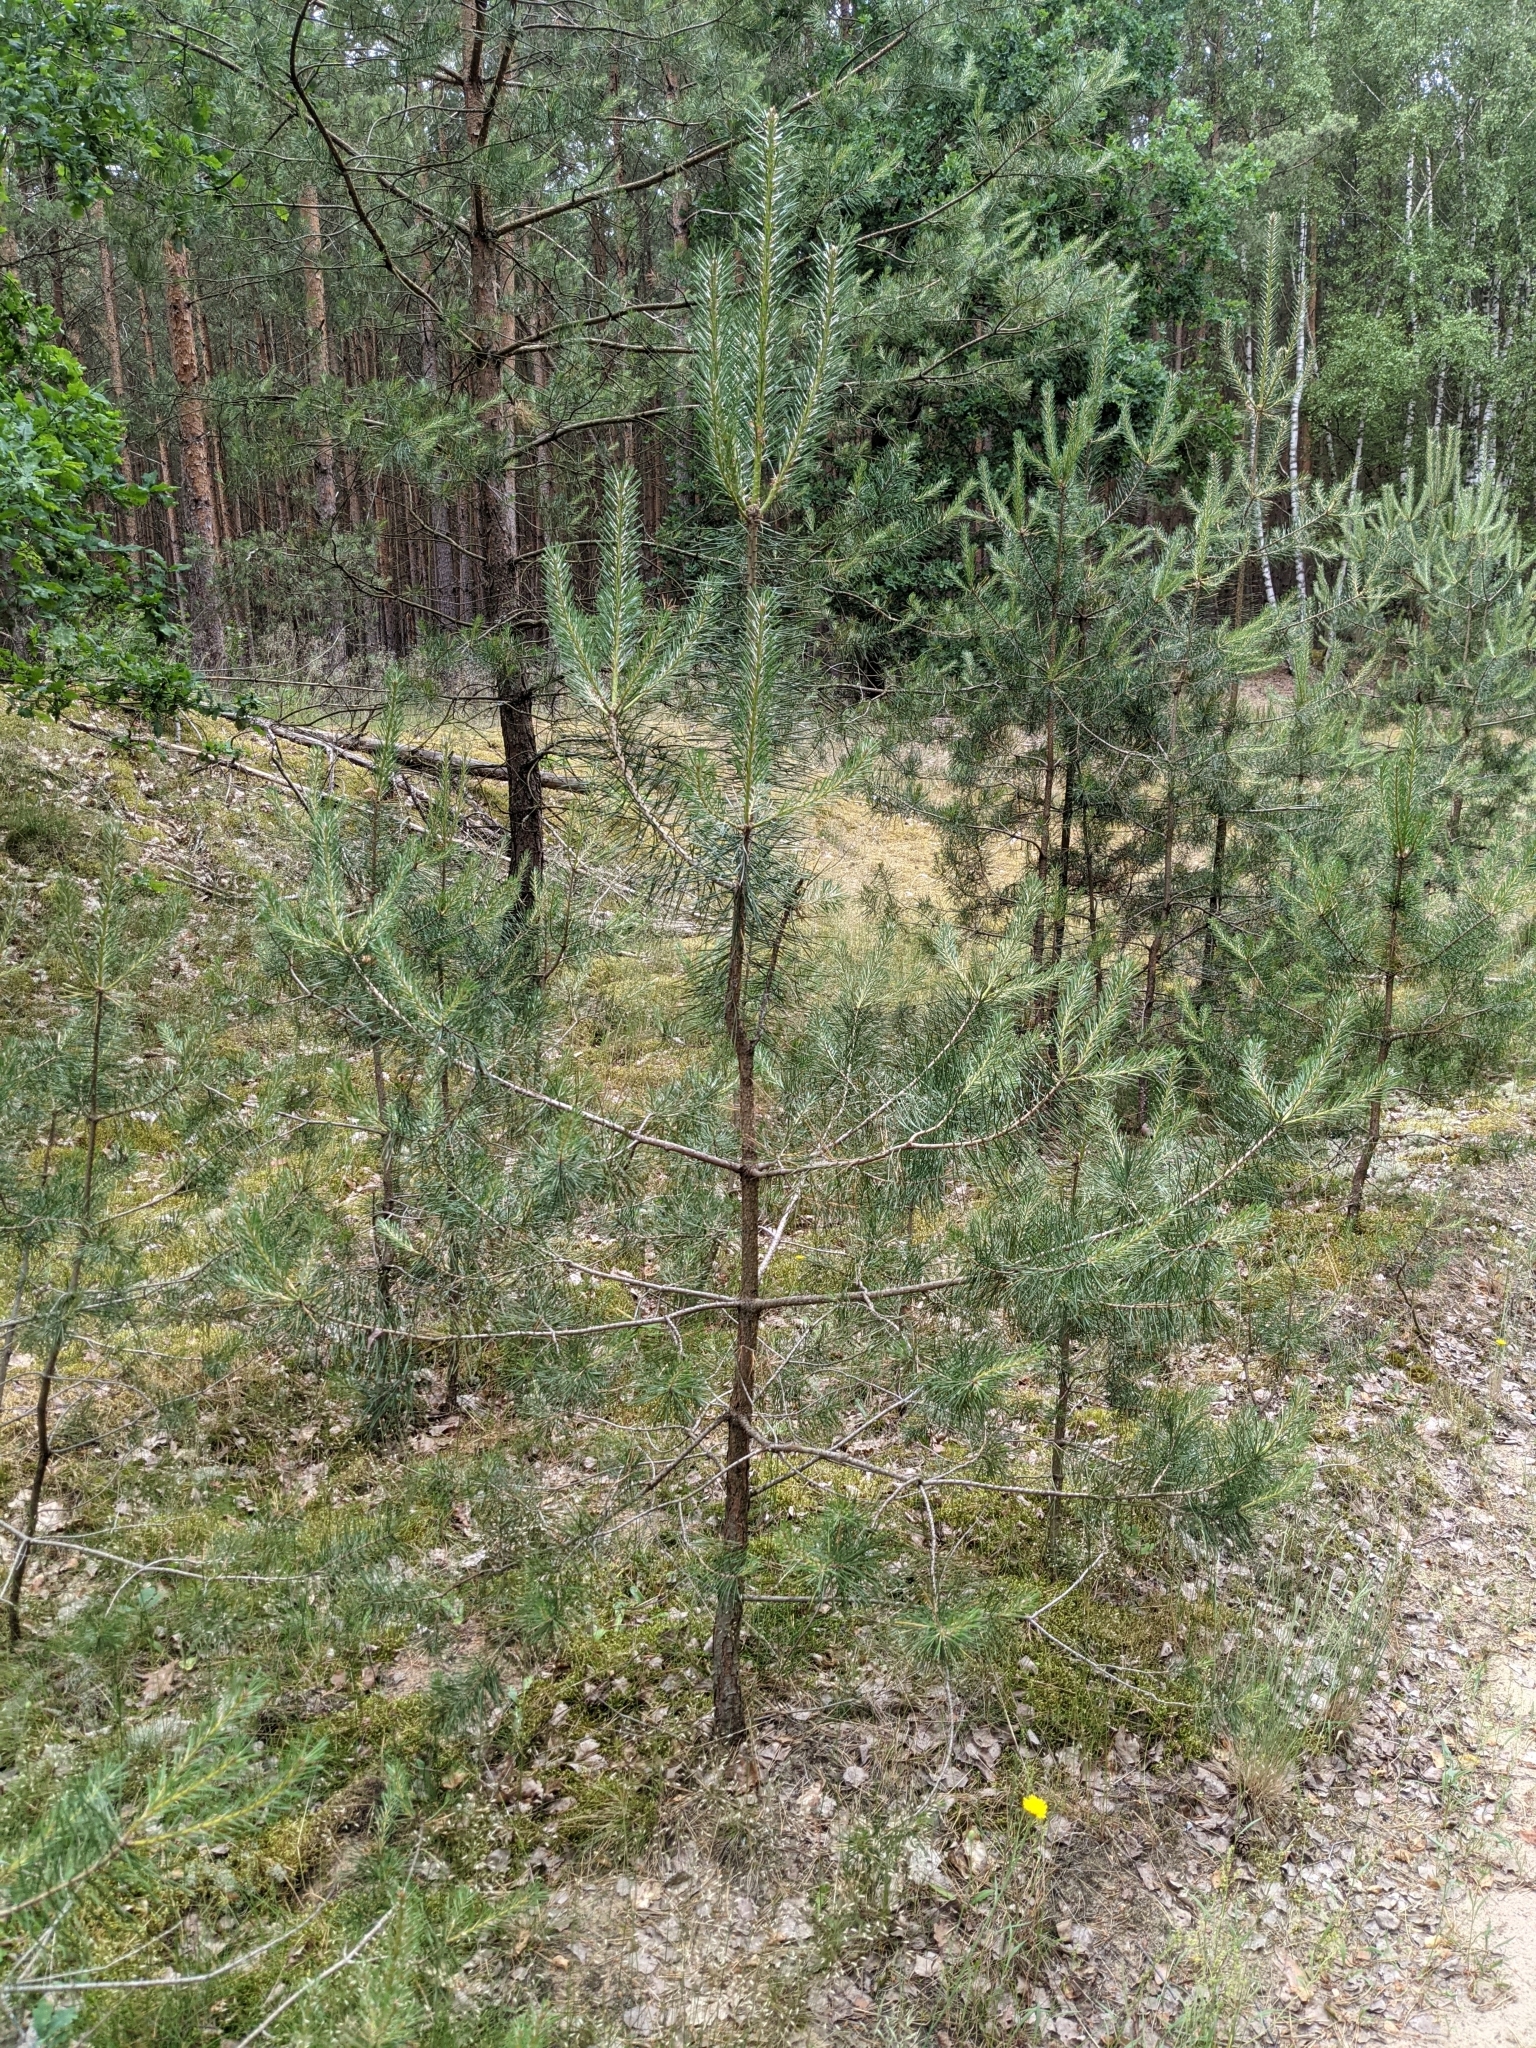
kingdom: Plantae
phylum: Tracheophyta
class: Pinopsida
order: Pinales
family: Pinaceae
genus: Pinus
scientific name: Pinus sylvestris
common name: Scots pine
